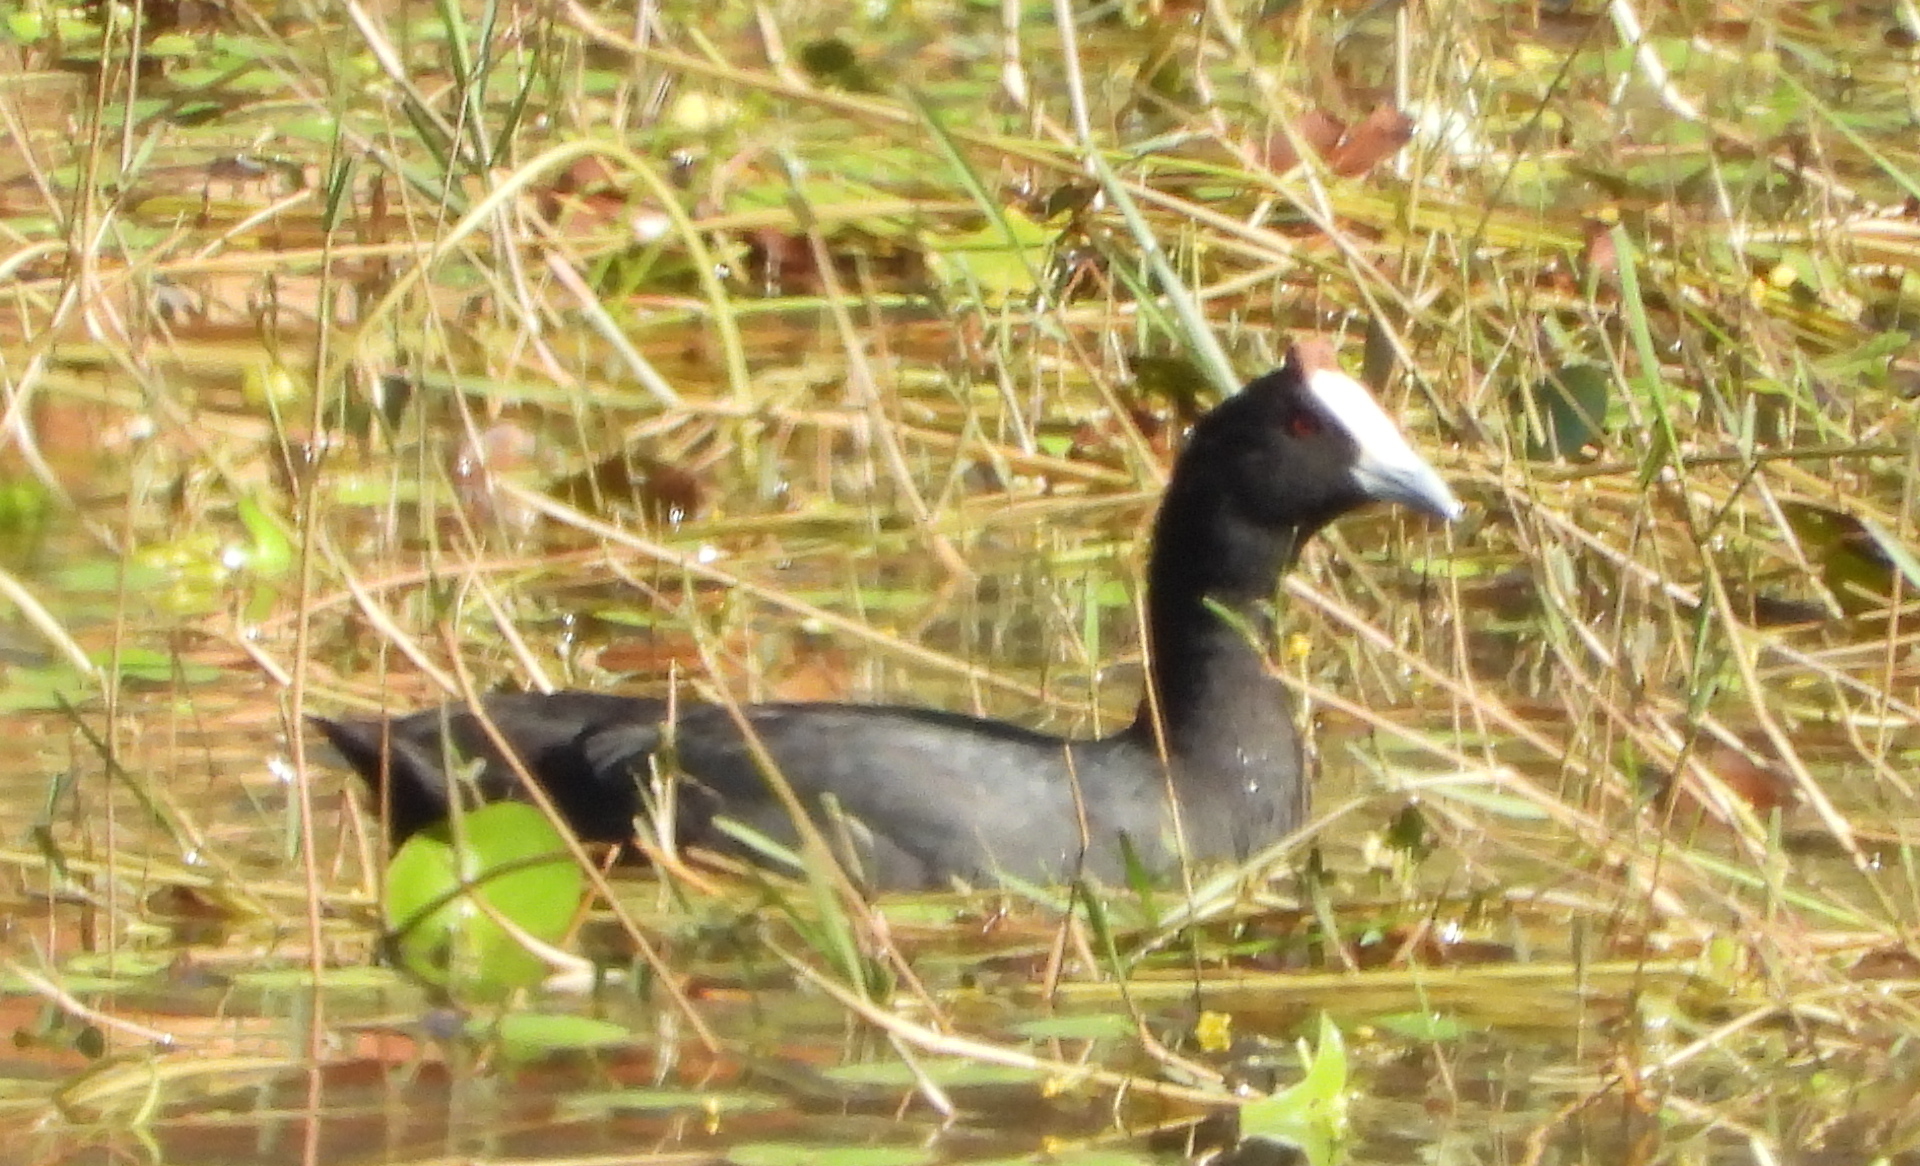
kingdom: Animalia
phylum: Chordata
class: Aves
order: Gruiformes
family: Rallidae
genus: Fulica
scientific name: Fulica cristata
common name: Red-knobbed coot
